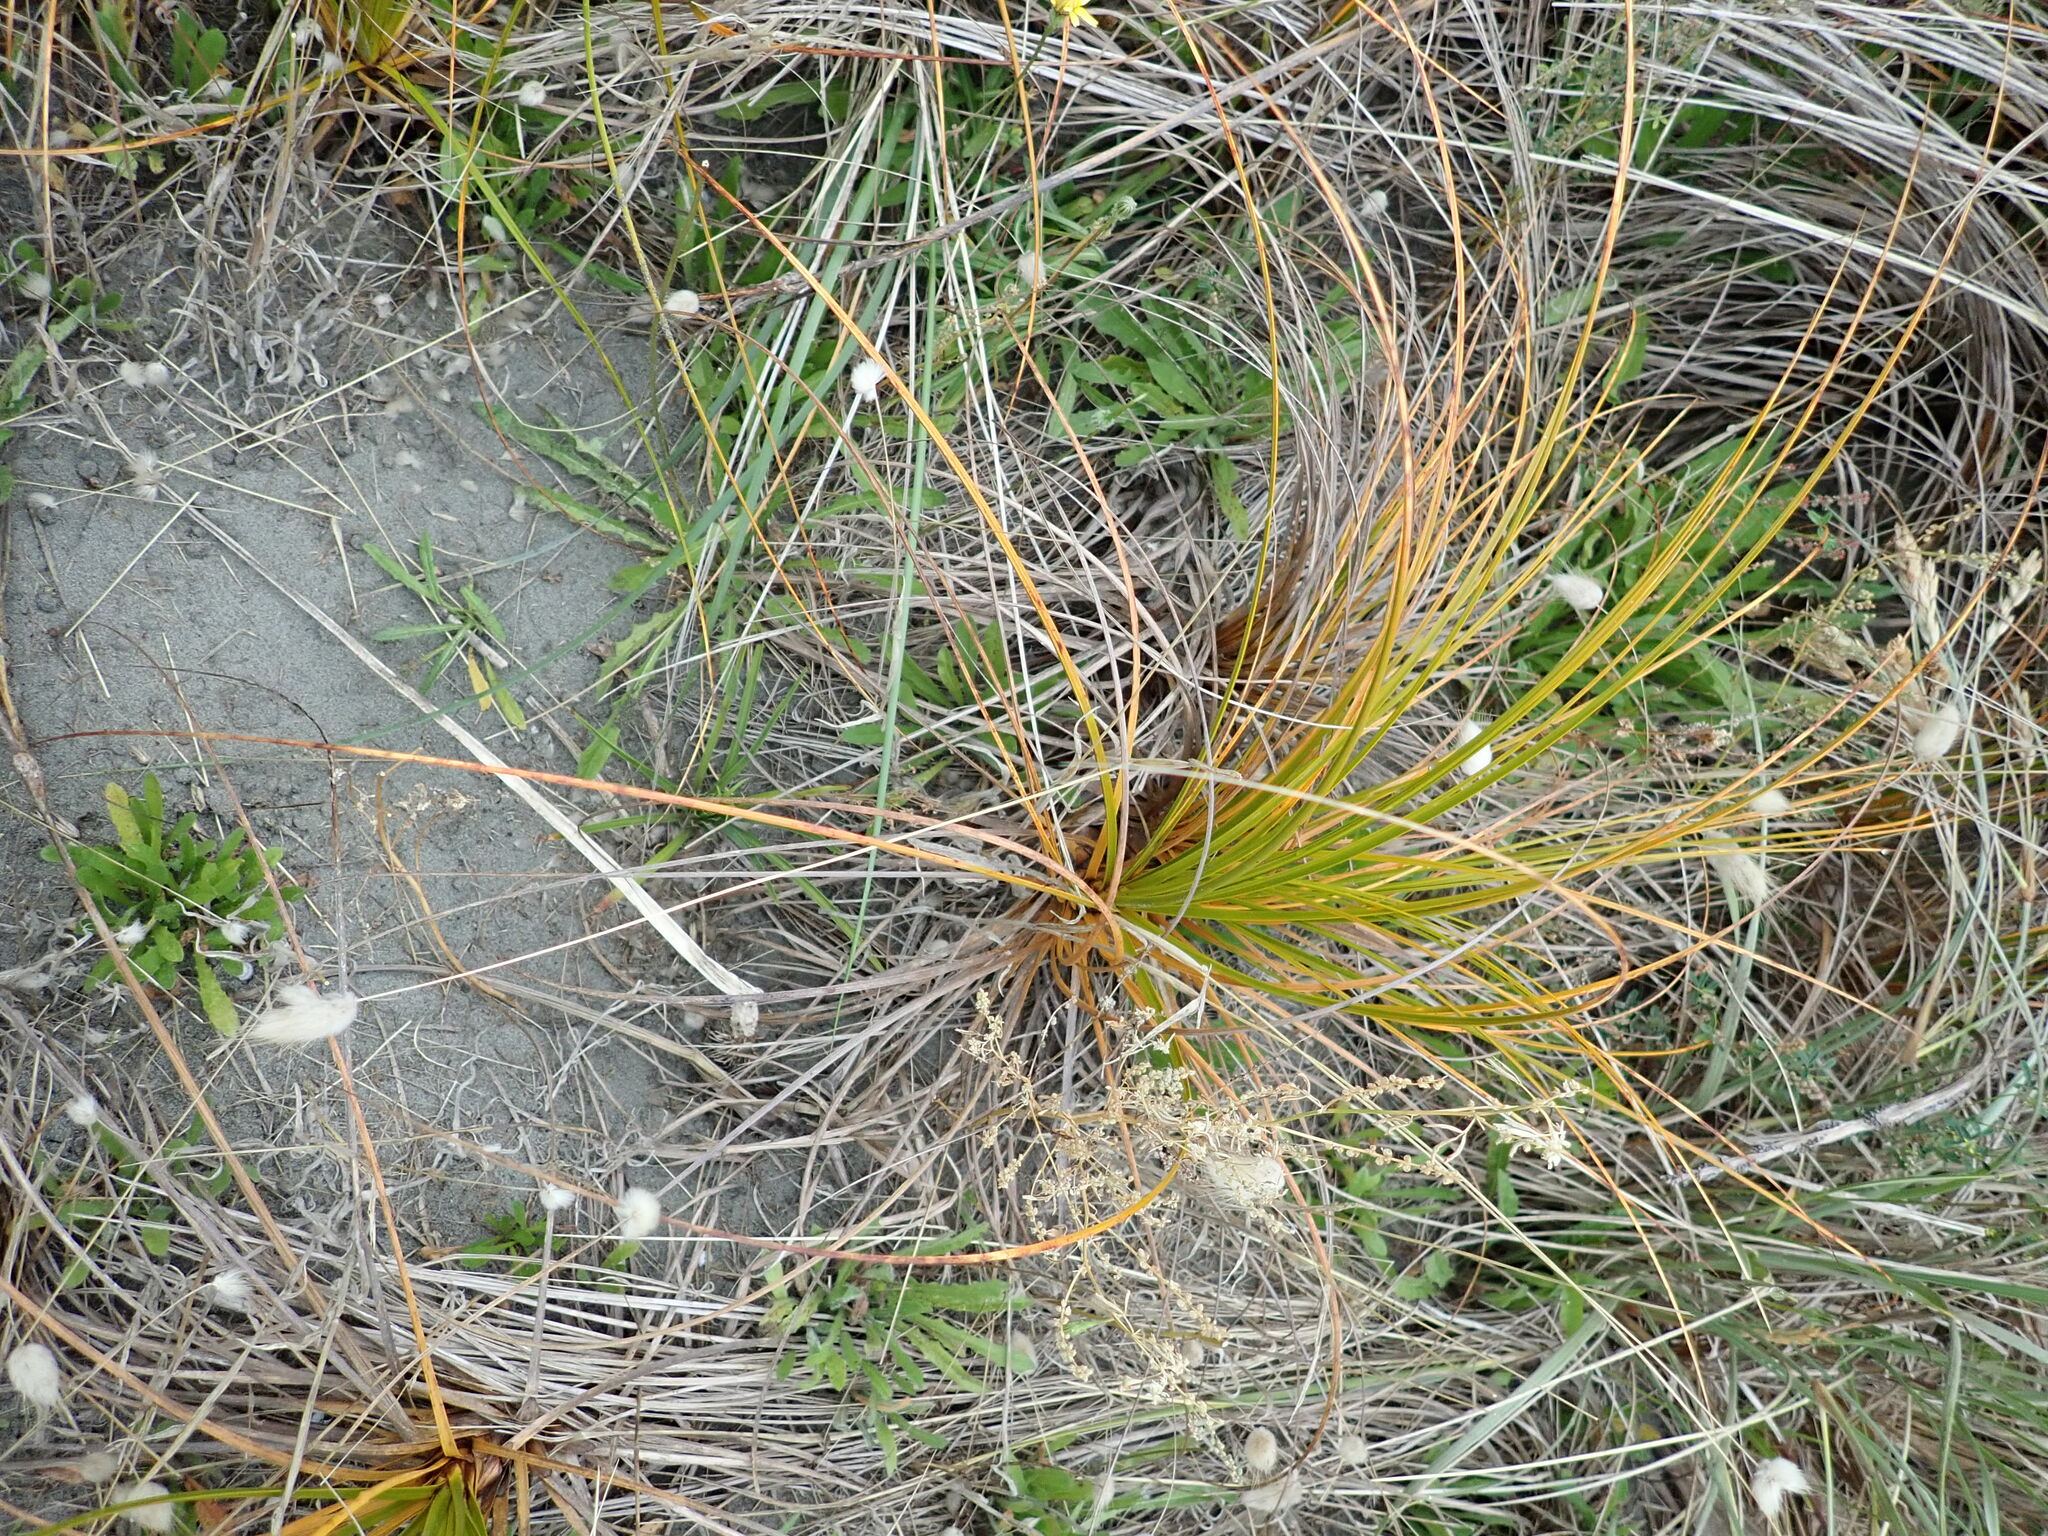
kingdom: Plantae
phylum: Tracheophyta
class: Liliopsida
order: Poales
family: Cyperaceae
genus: Ficinia
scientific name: Ficinia spiralis
